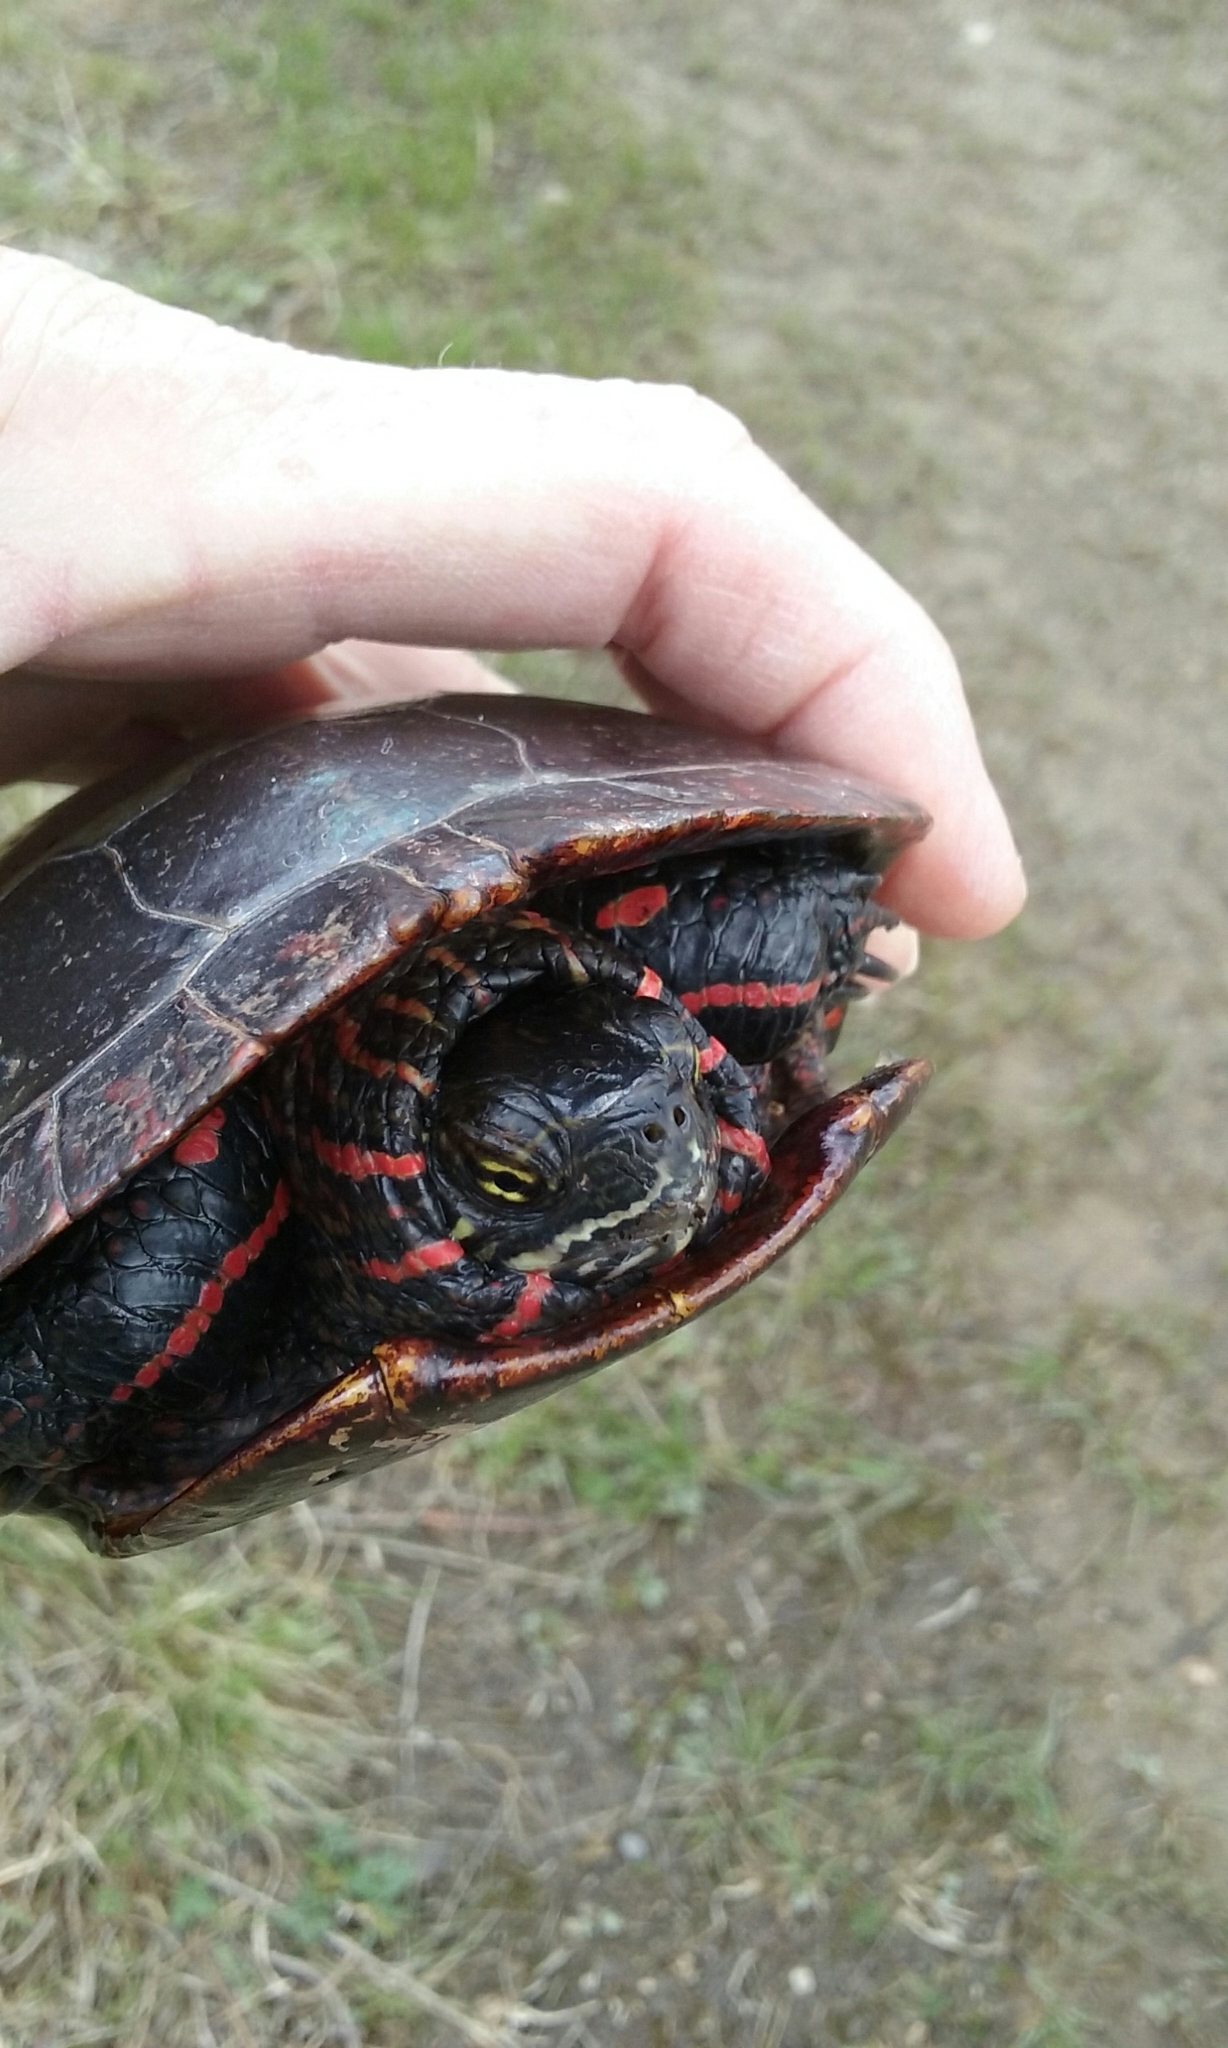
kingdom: Animalia
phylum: Chordata
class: Testudines
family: Emydidae
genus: Chrysemys
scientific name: Chrysemys picta
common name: Painted turtle
